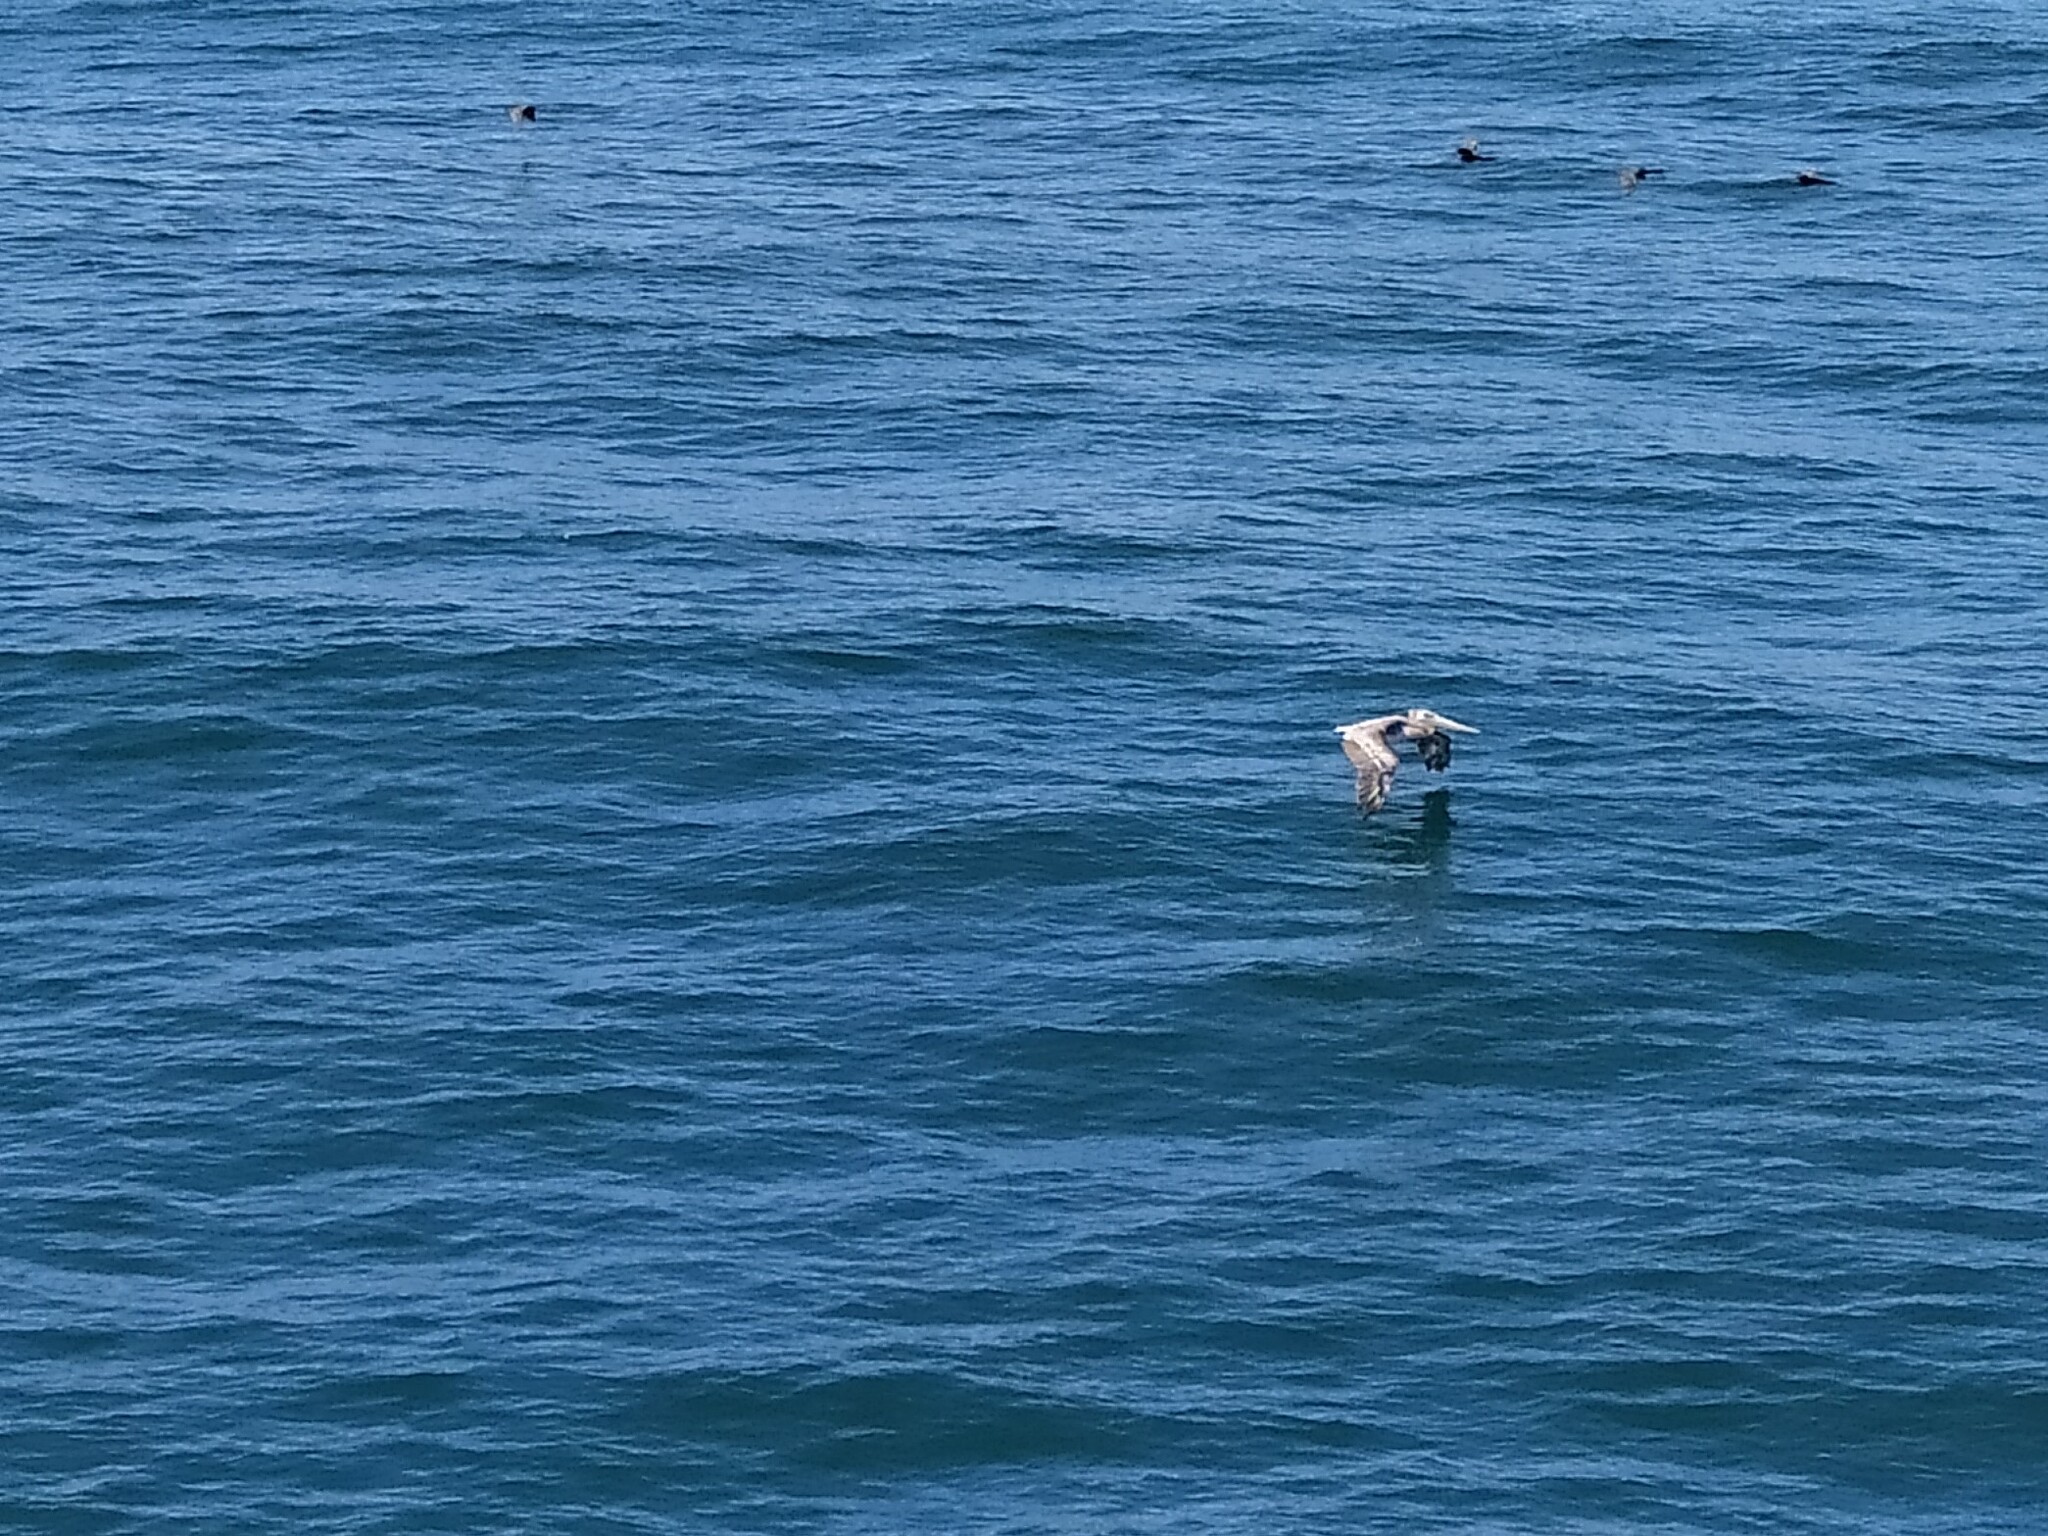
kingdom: Animalia
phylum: Chordata
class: Aves
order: Pelecaniformes
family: Pelecanidae
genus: Pelecanus
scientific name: Pelecanus occidentalis
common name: Brown pelican
